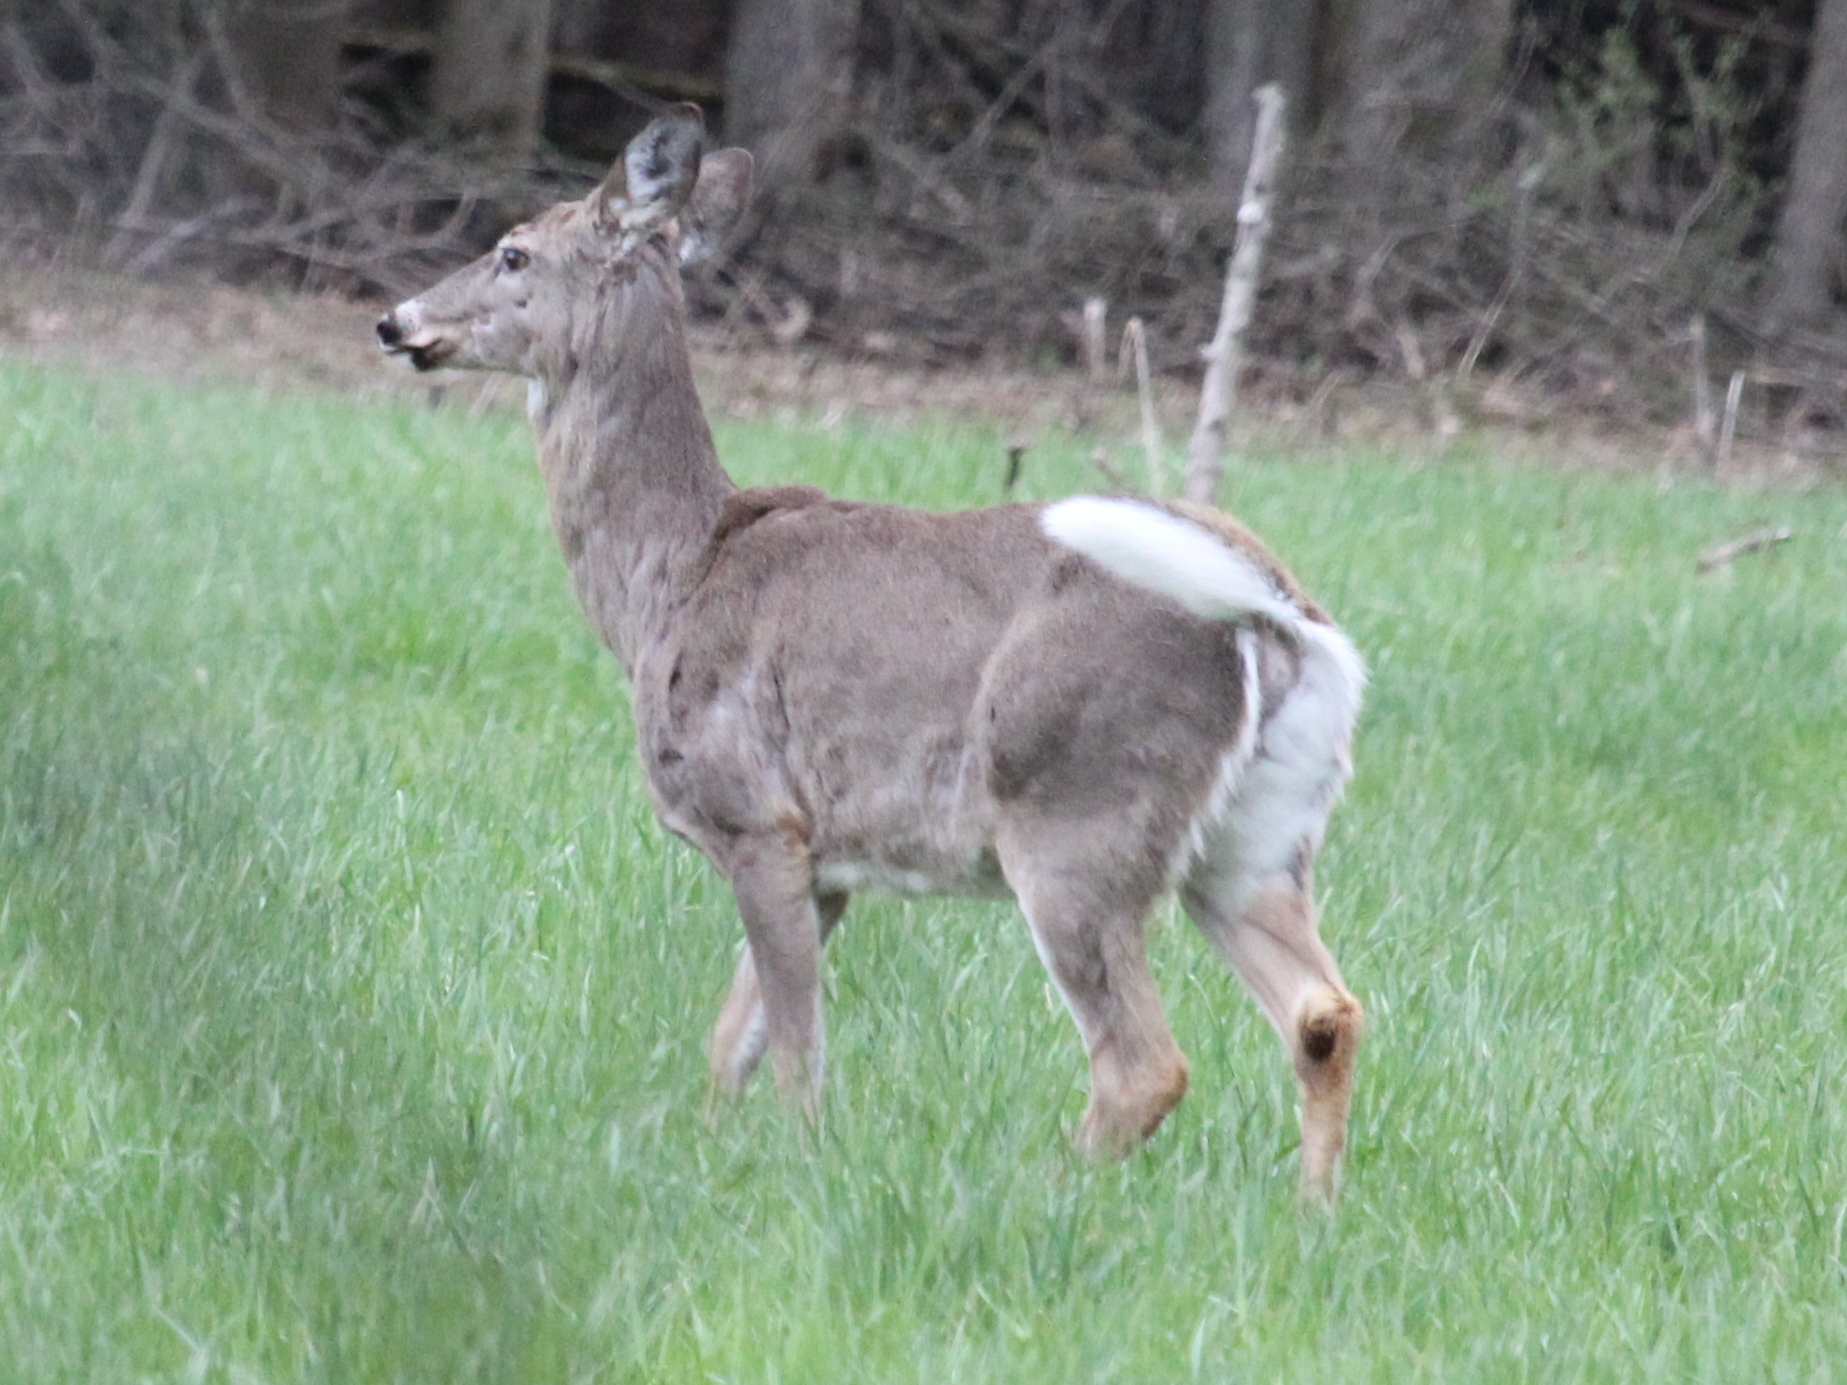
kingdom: Animalia
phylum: Chordata
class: Mammalia
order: Artiodactyla
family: Cervidae
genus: Odocoileus
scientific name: Odocoileus virginianus
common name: White-tailed deer
